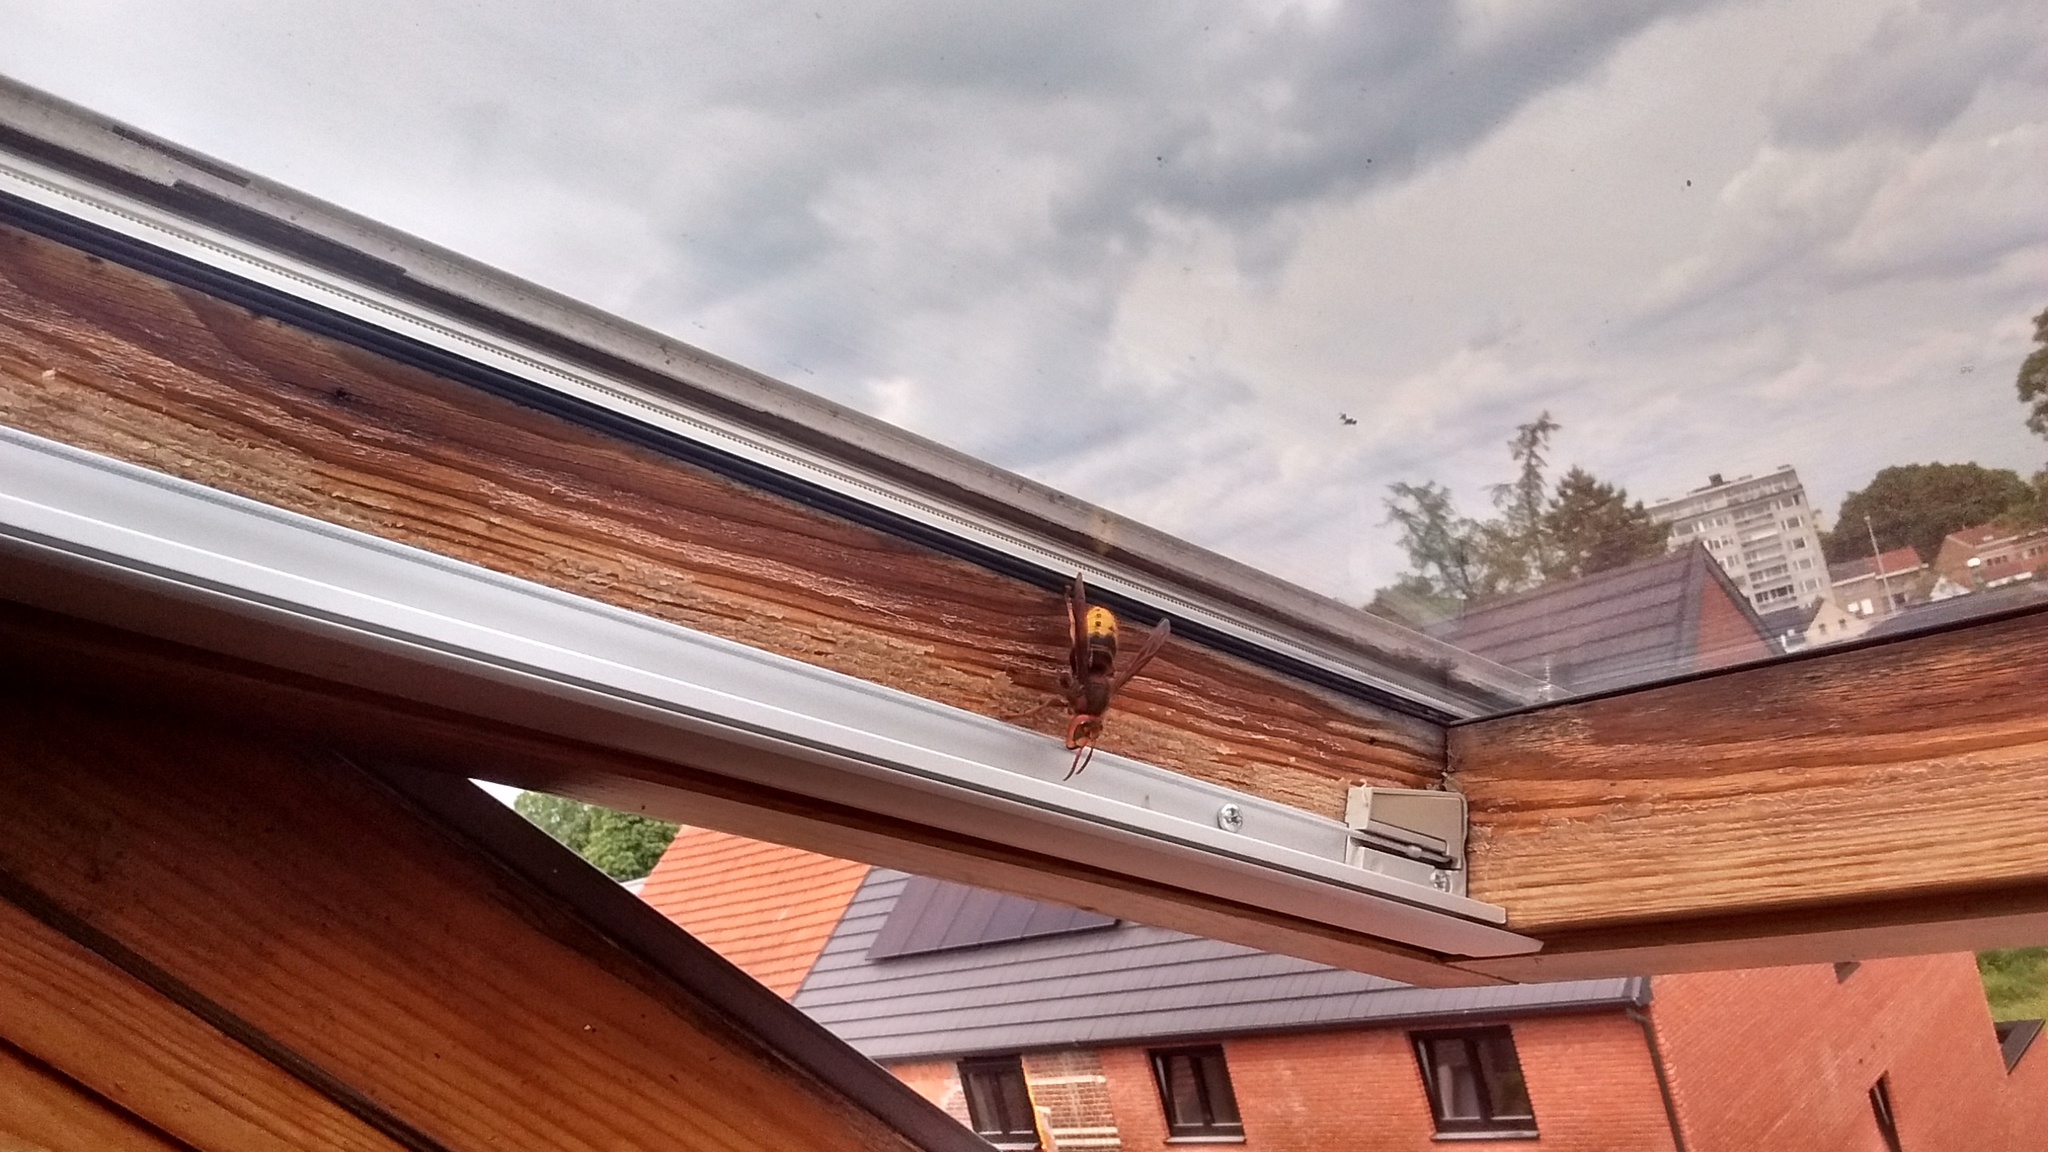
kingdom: Animalia
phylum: Arthropoda
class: Insecta
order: Hymenoptera
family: Vespidae
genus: Vespa
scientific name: Vespa crabro
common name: Hornet
